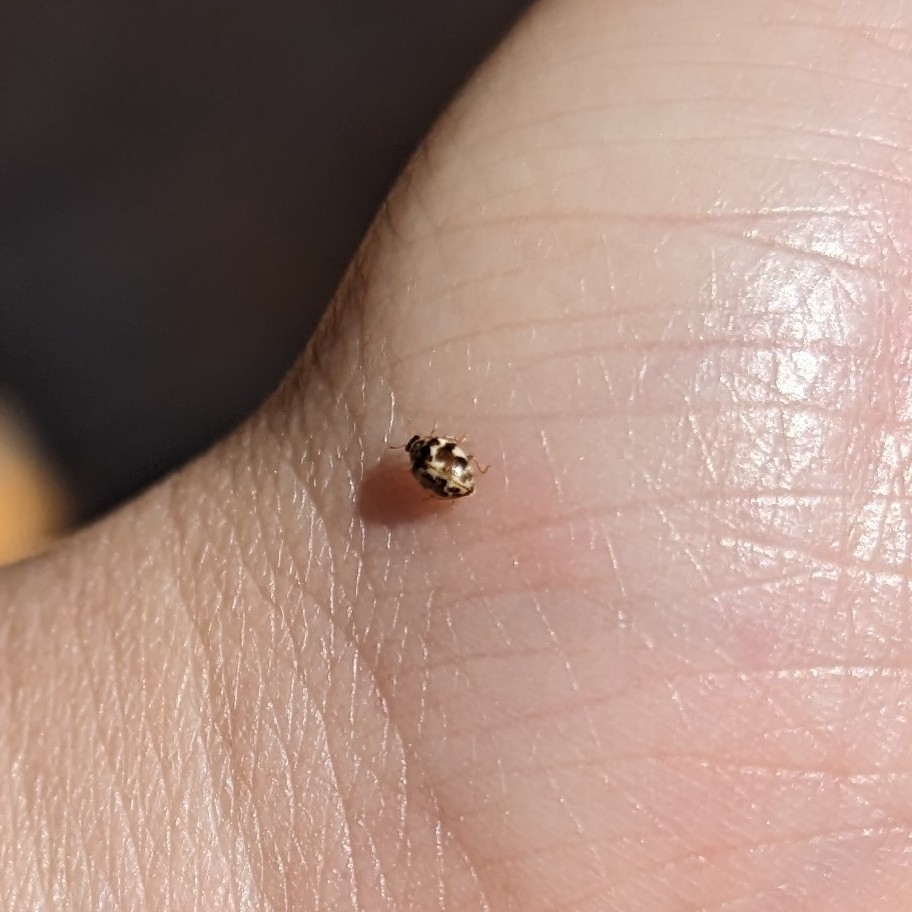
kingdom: Animalia
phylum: Arthropoda
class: Insecta
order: Coleoptera
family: Coccinellidae
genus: Psyllobora
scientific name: Psyllobora vigintimaculata
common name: Ladybird beetle
